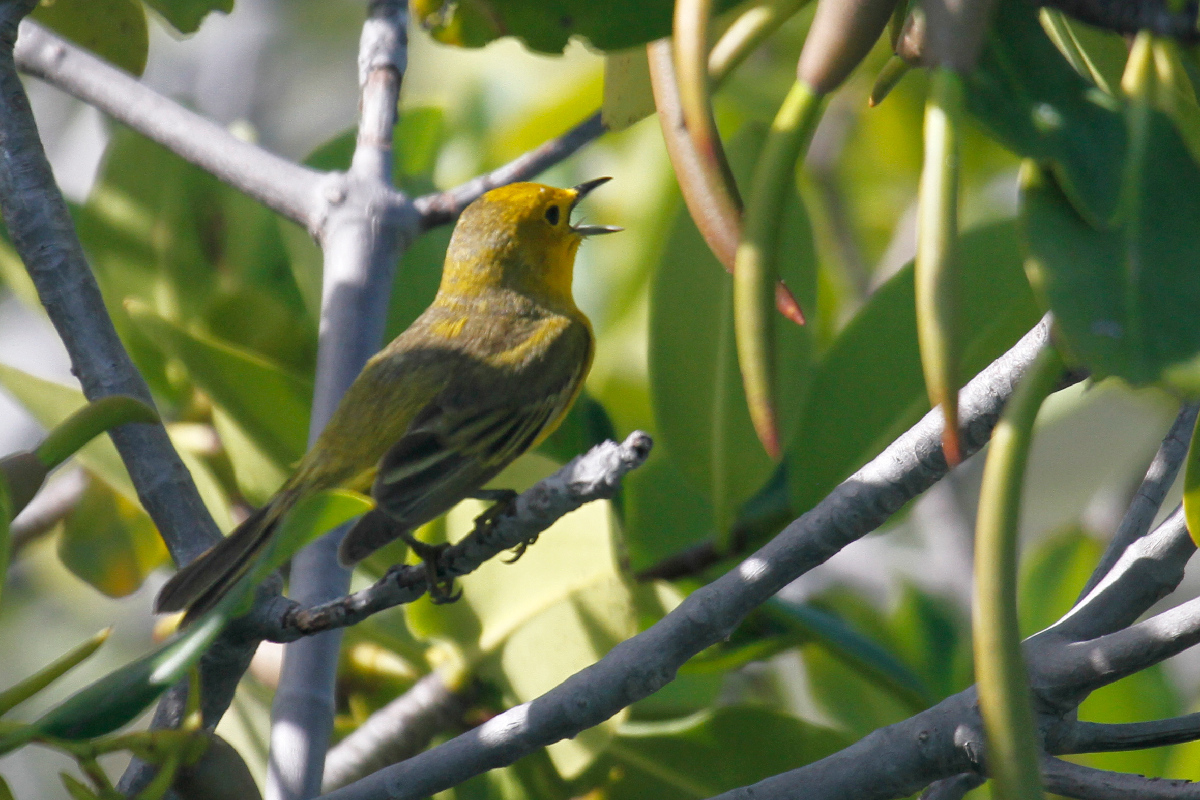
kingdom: Animalia
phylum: Chordata
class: Aves
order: Passeriformes
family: Parulidae
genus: Setophaga
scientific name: Setophaga petechia
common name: Yellow warbler
